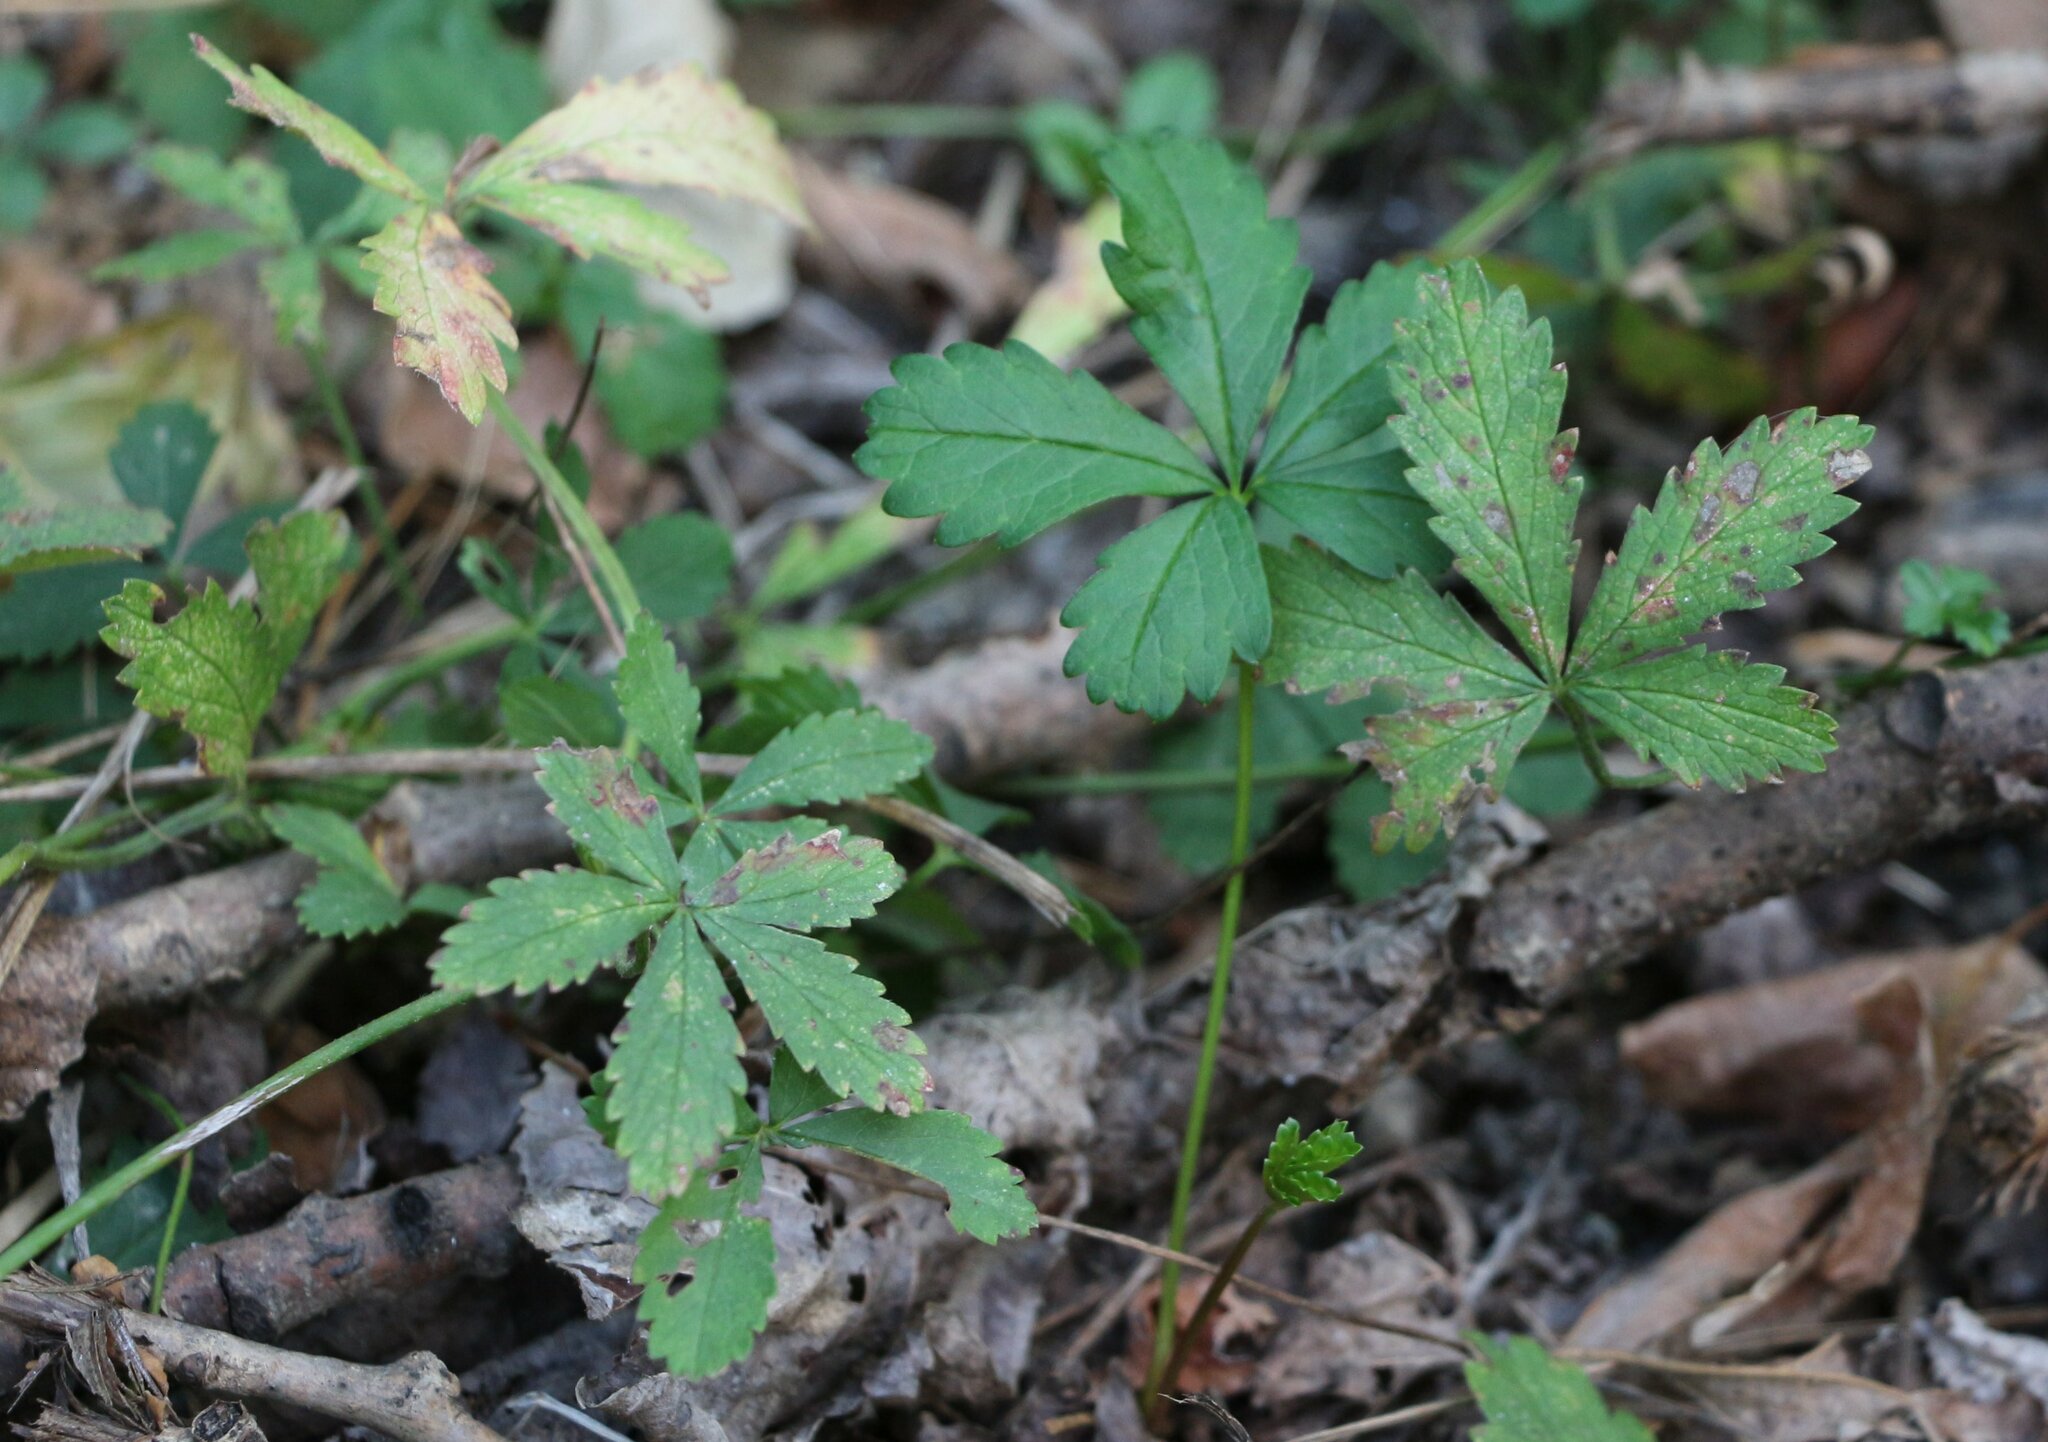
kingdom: Plantae
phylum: Tracheophyta
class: Magnoliopsida
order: Rosales
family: Rosaceae
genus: Potentilla
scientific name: Potentilla reptans
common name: Creeping cinquefoil
